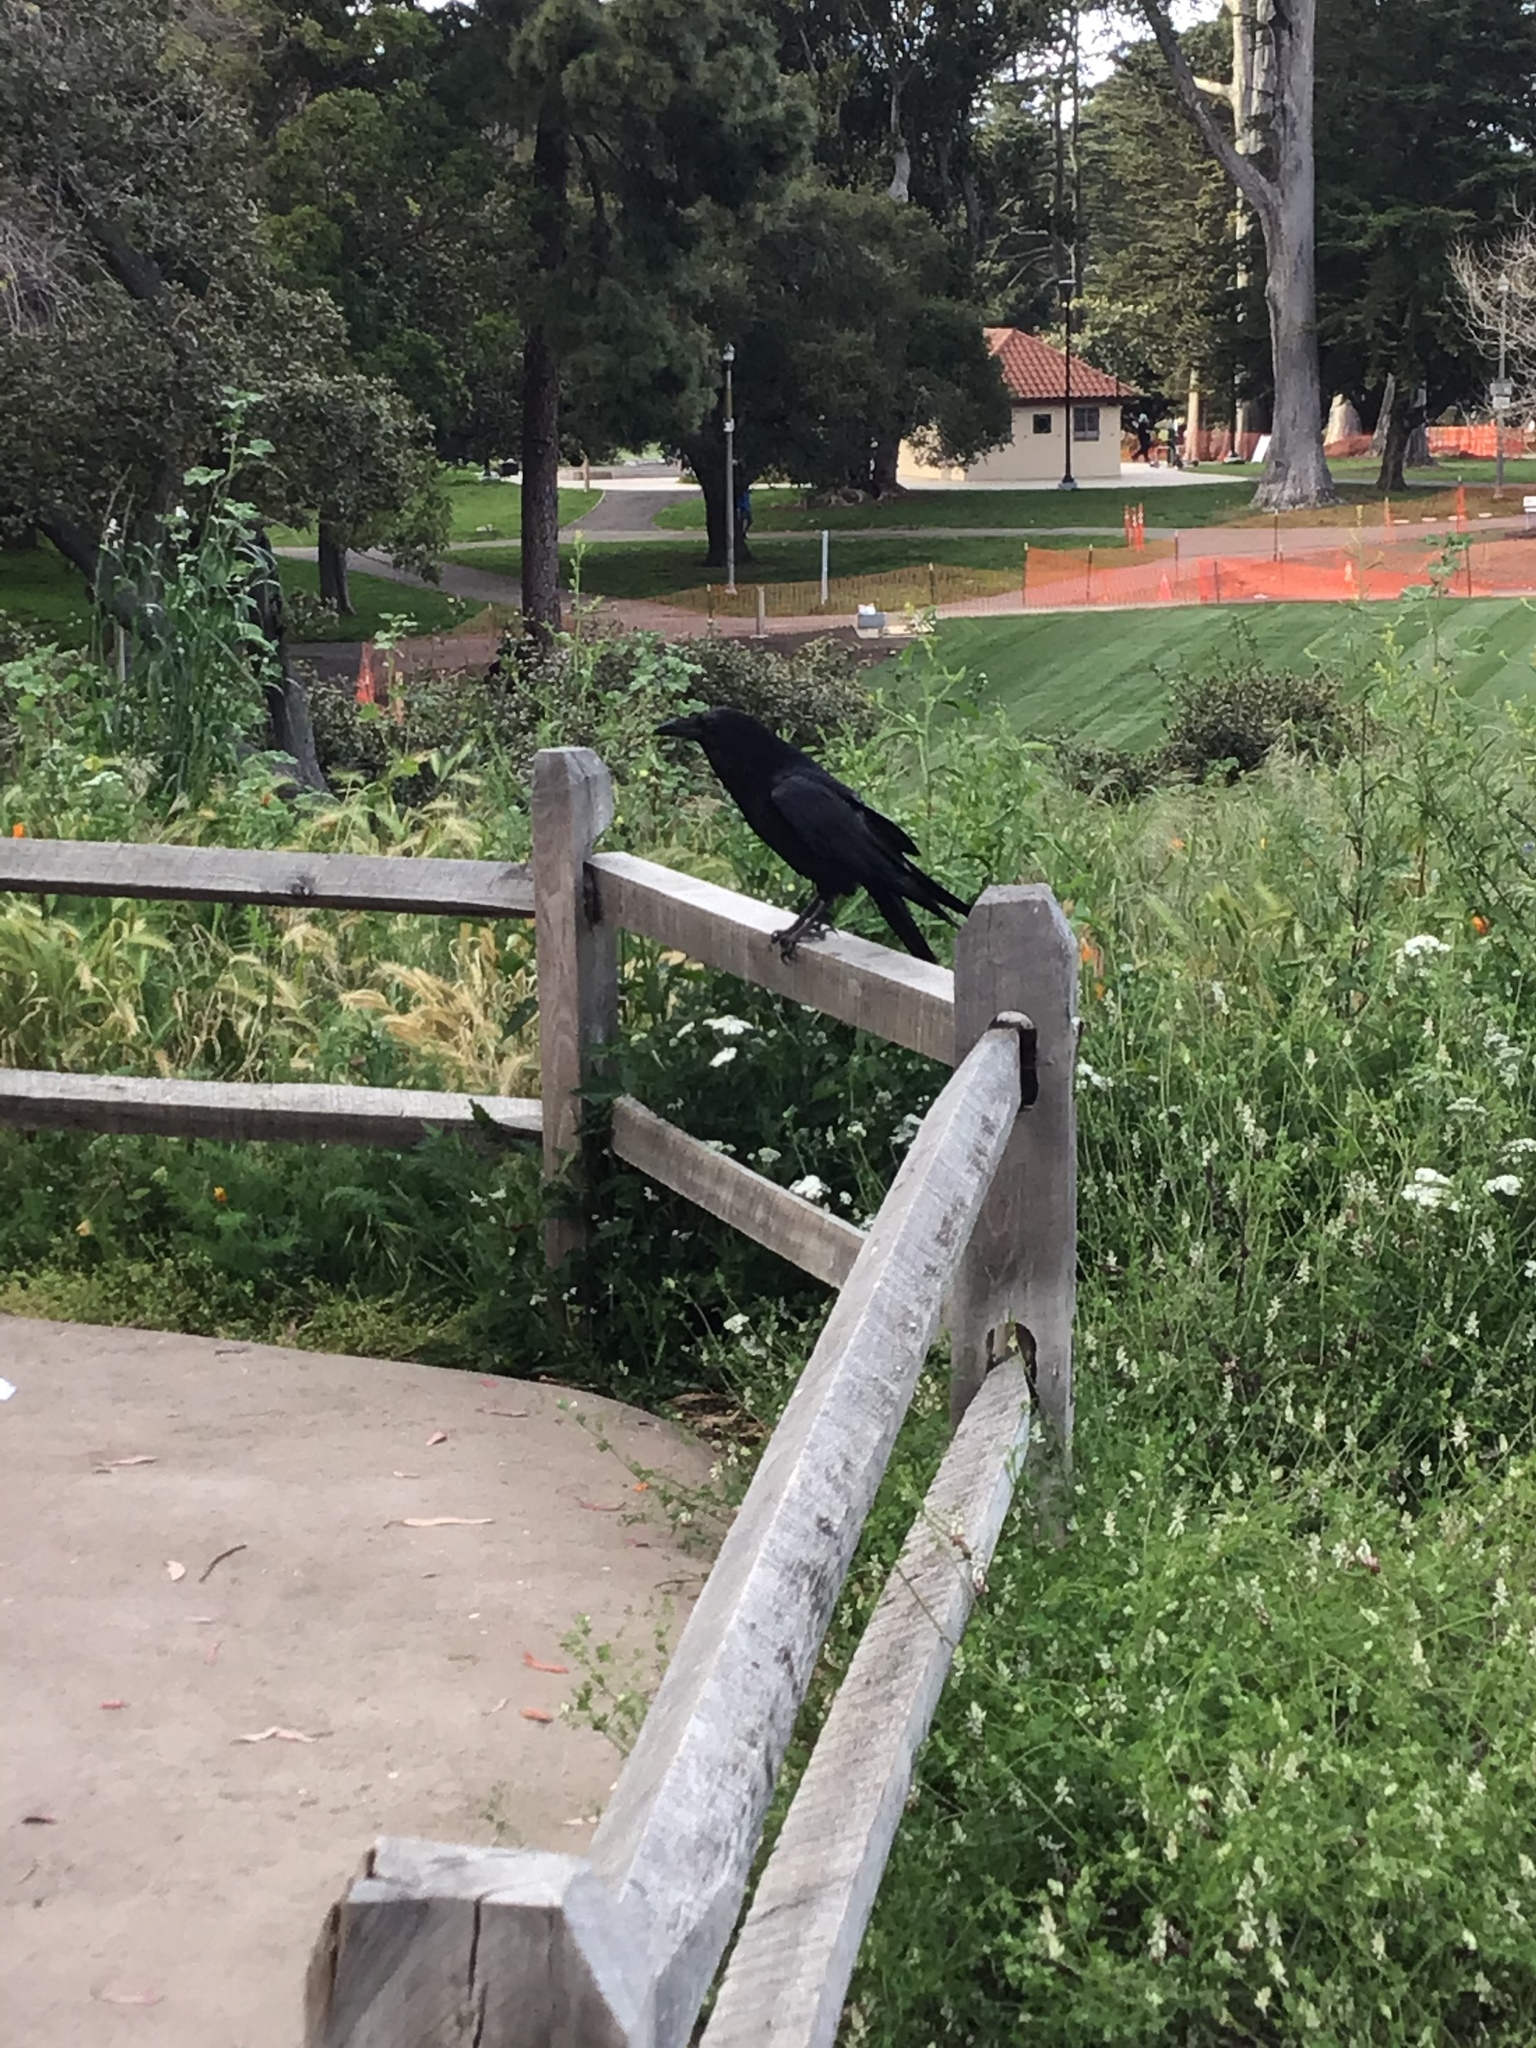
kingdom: Animalia
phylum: Chordata
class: Aves
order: Passeriformes
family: Corvidae
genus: Corvus
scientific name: Corvus corax
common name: Common raven
